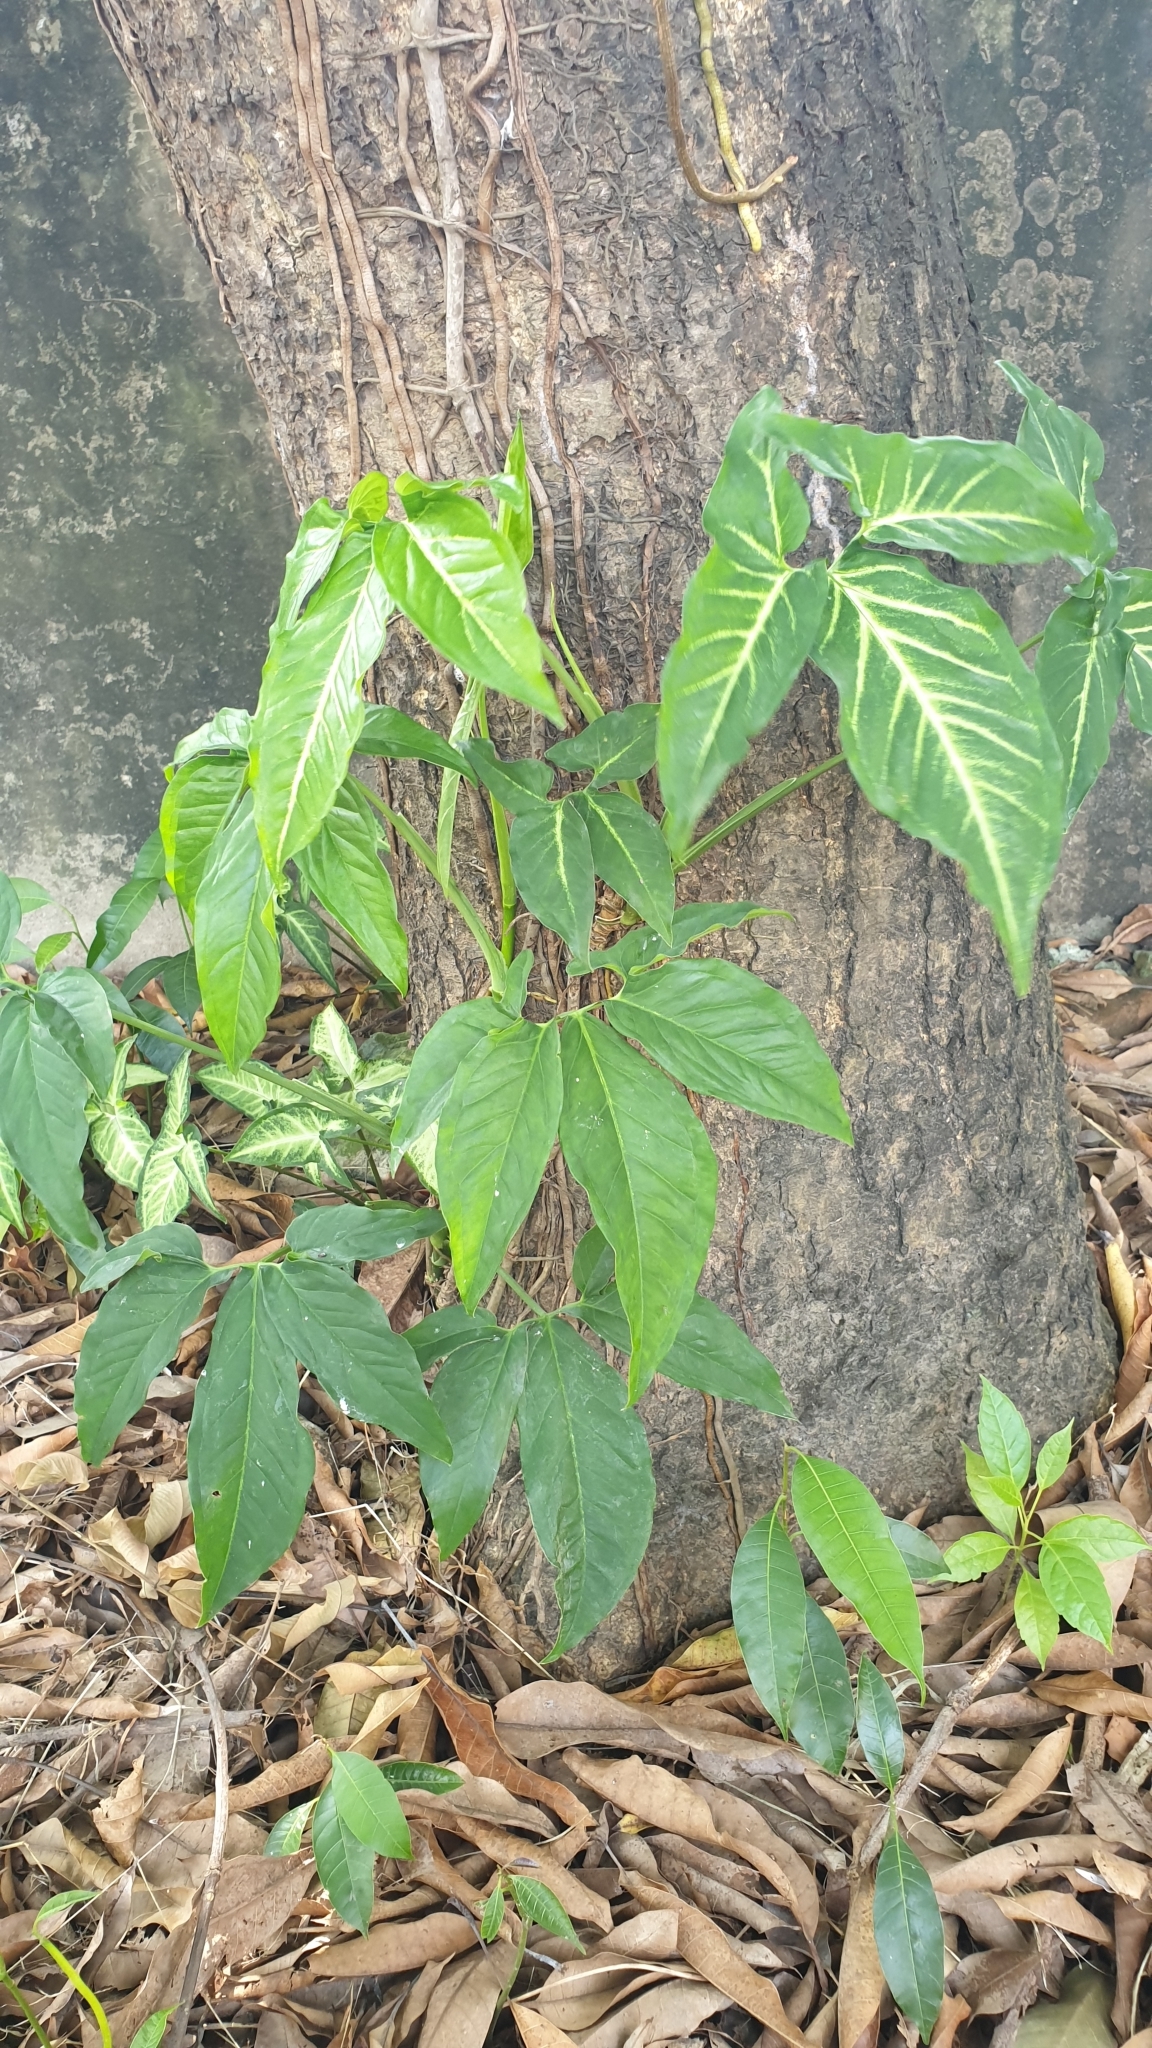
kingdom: Plantae
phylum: Tracheophyta
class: Liliopsida
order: Alismatales
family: Araceae
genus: Syngonium
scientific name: Syngonium podophyllum
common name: American evergreen
